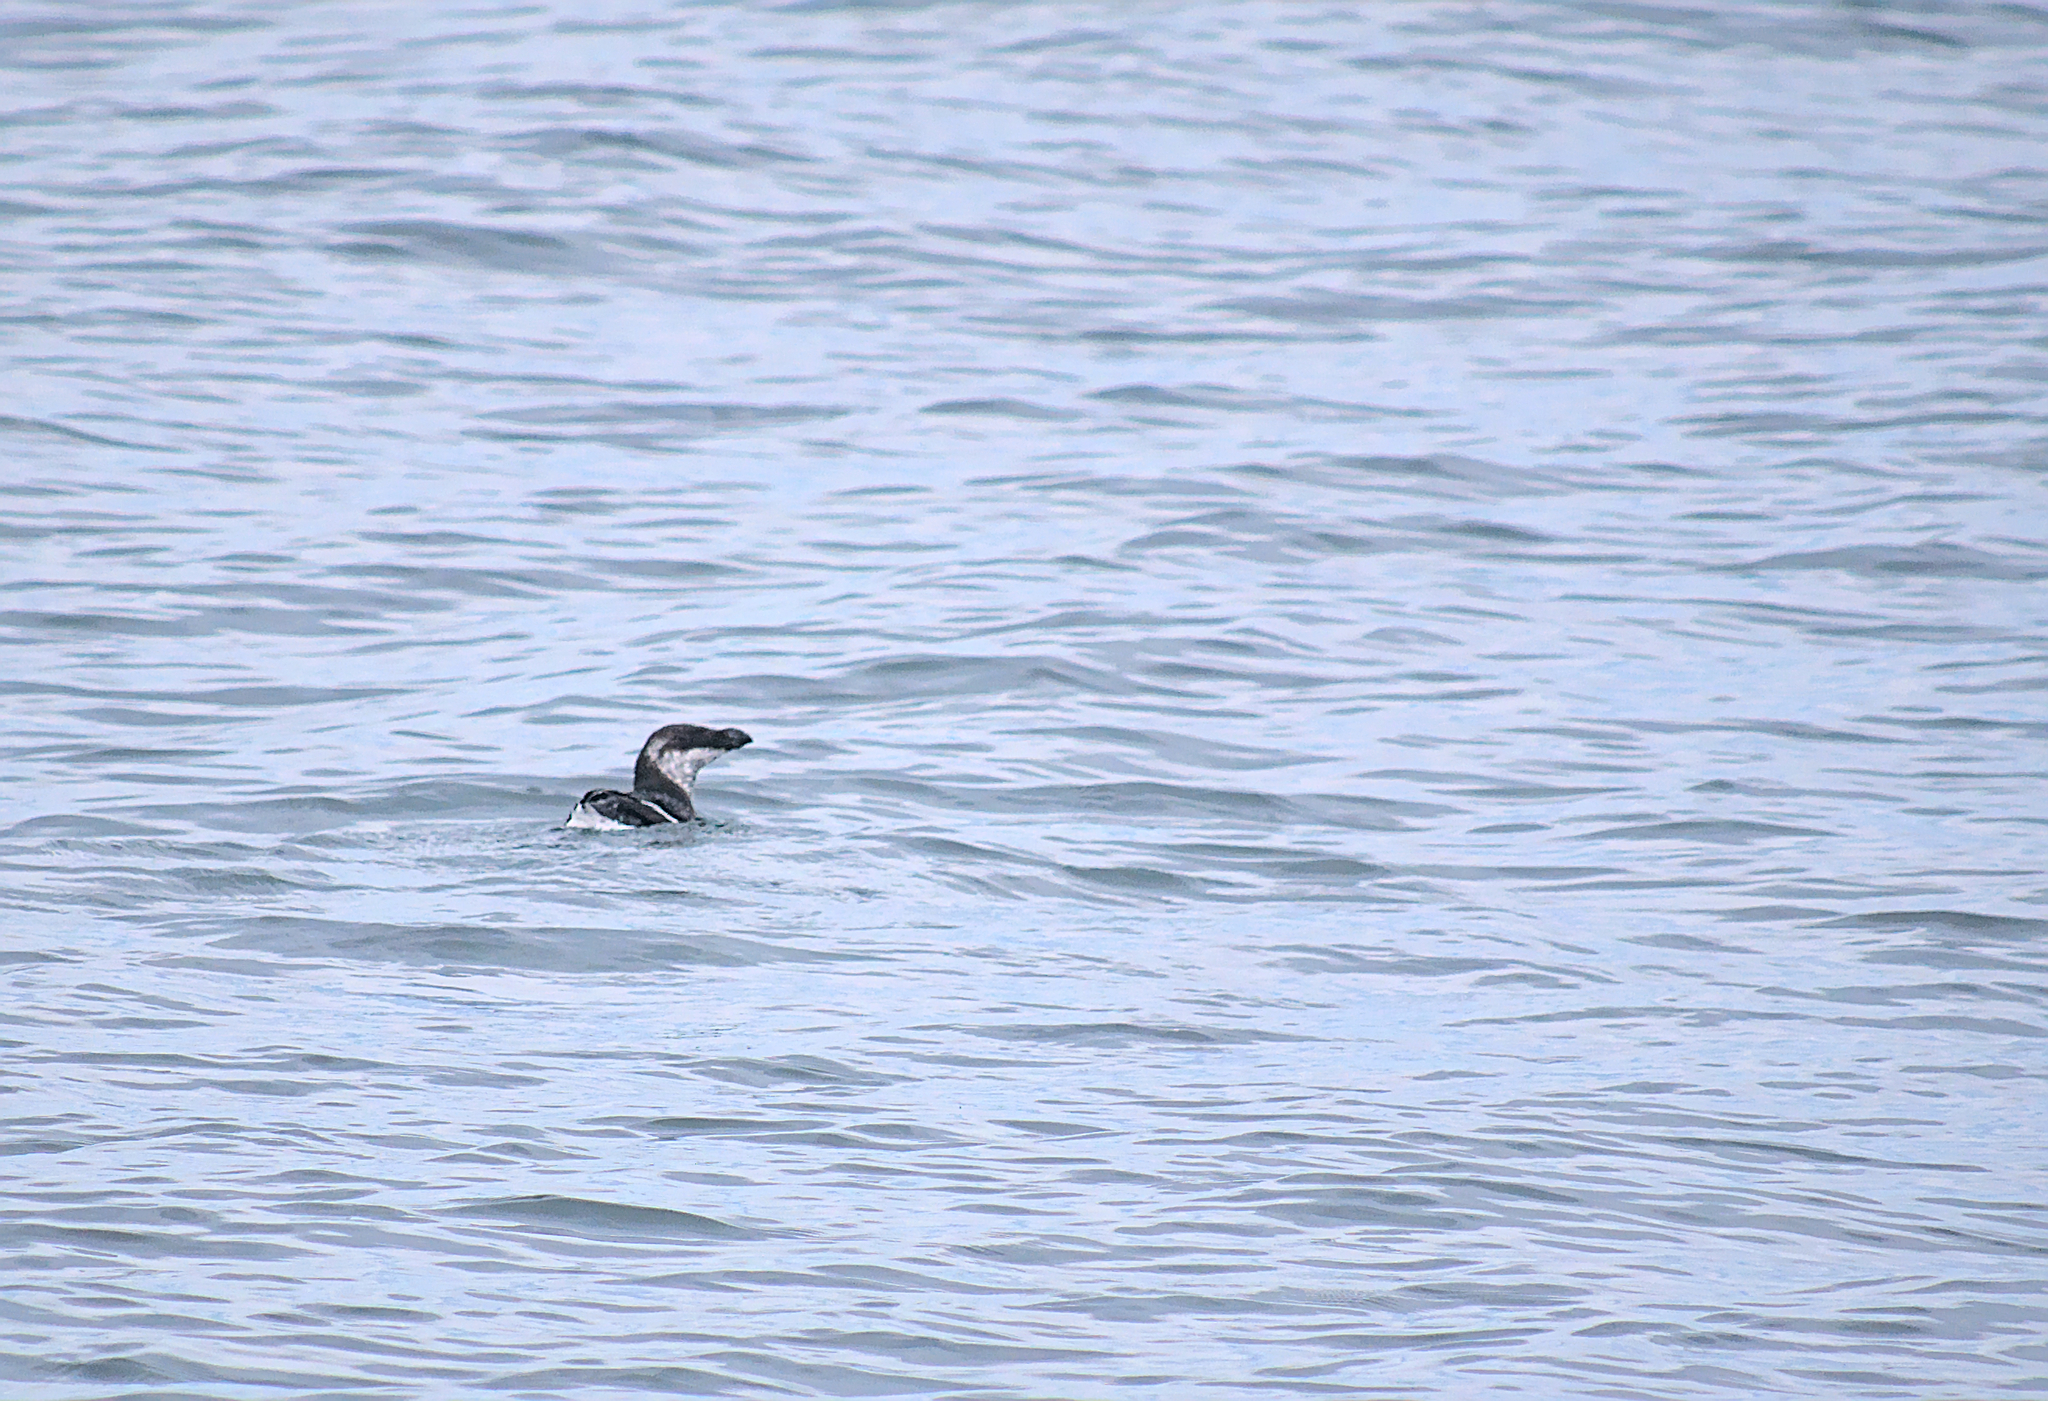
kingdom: Animalia
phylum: Chordata
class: Aves
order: Charadriiformes
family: Alcidae
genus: Alca
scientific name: Alca torda
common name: Razorbill
